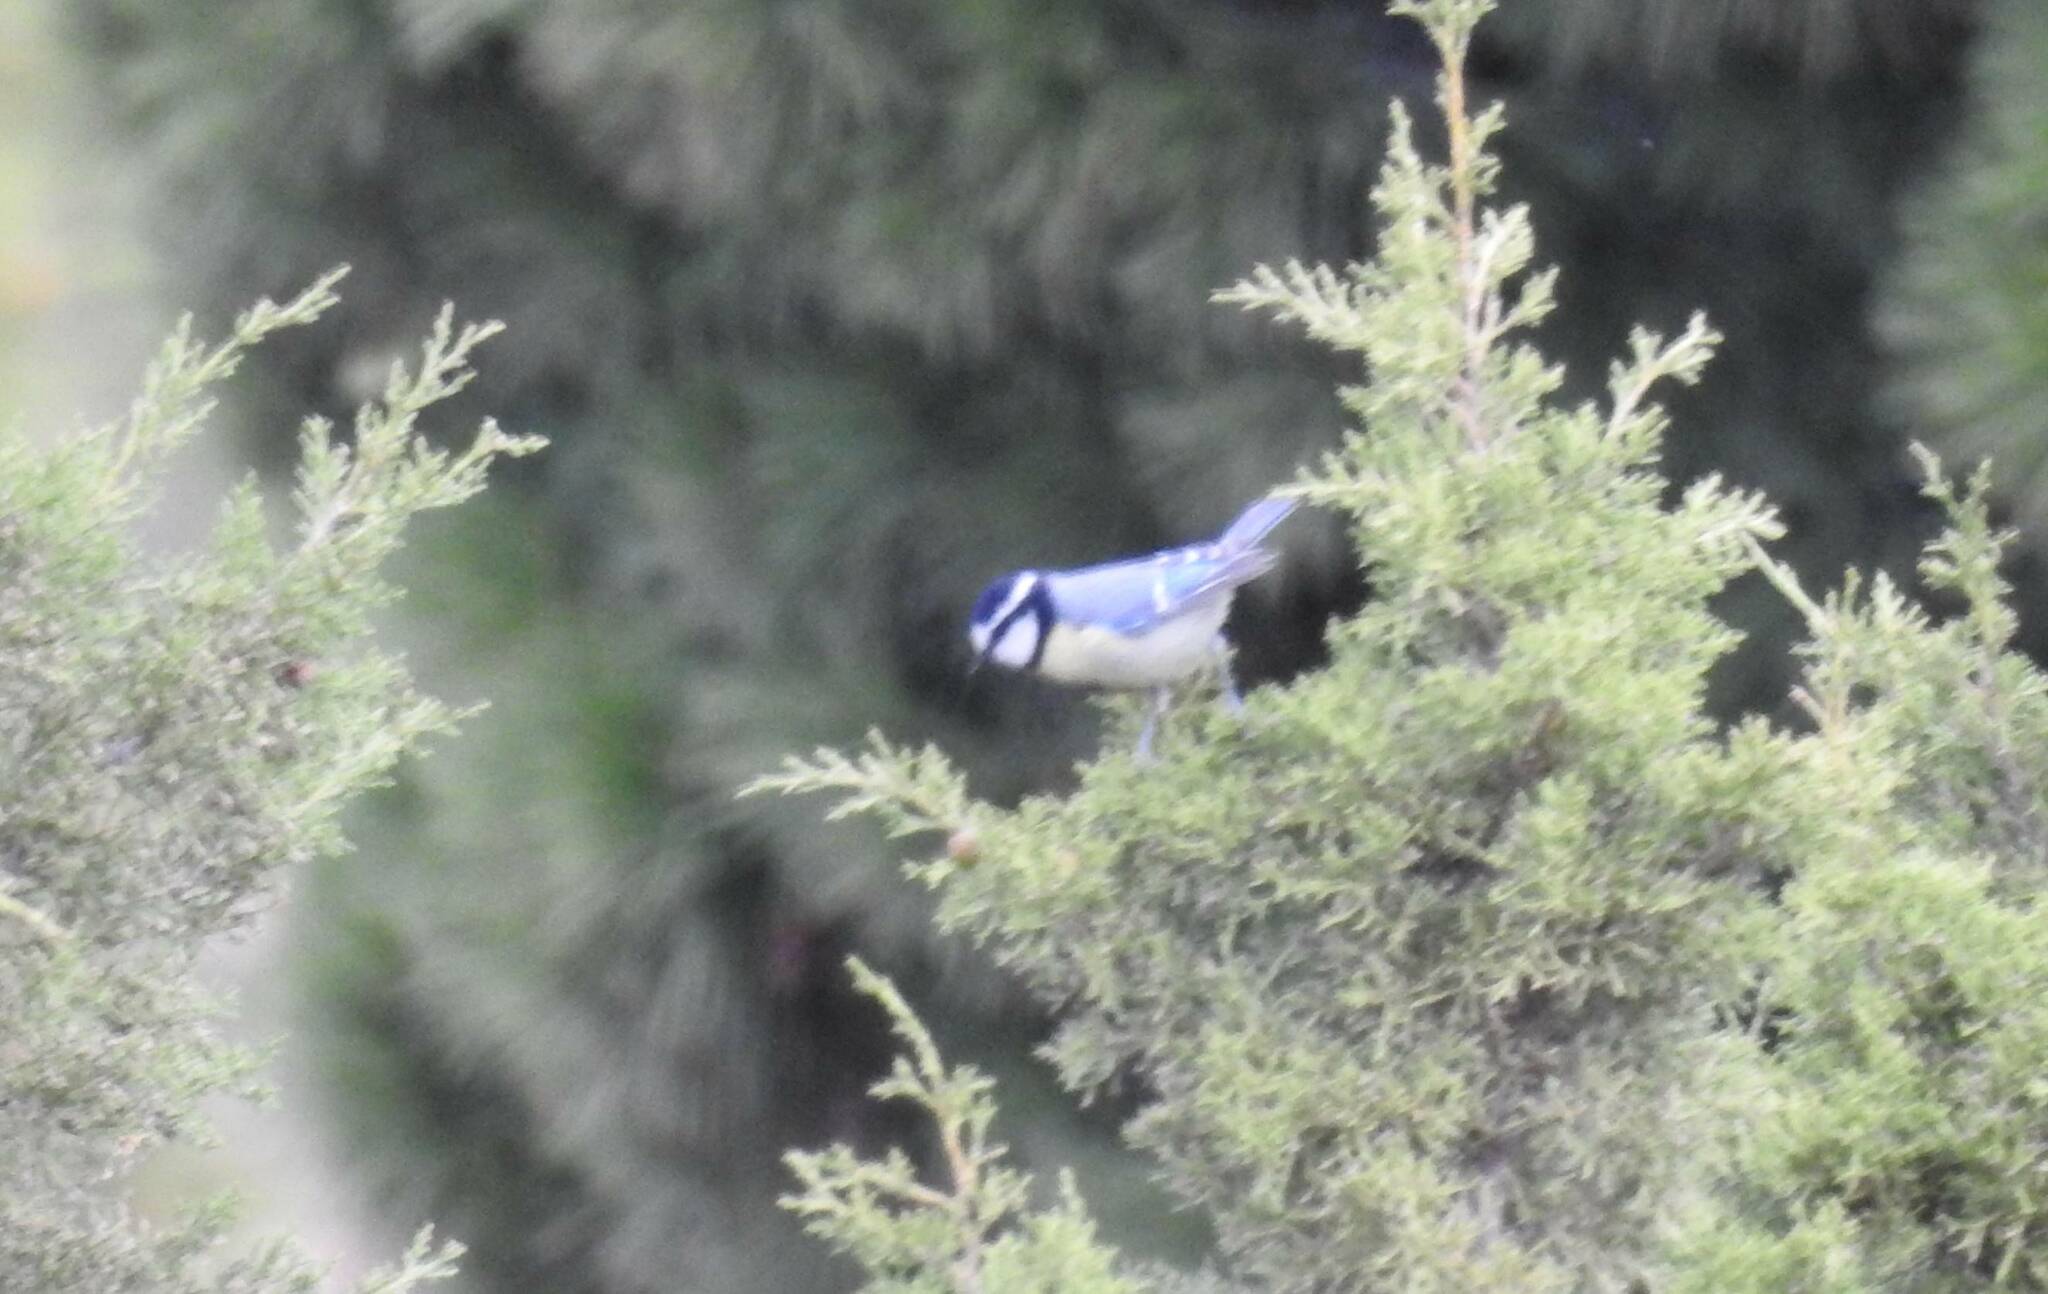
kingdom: Animalia
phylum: Chordata
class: Aves
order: Passeriformes
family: Paridae
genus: Cyanistes
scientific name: Cyanistes teneriffae
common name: African blue tit
